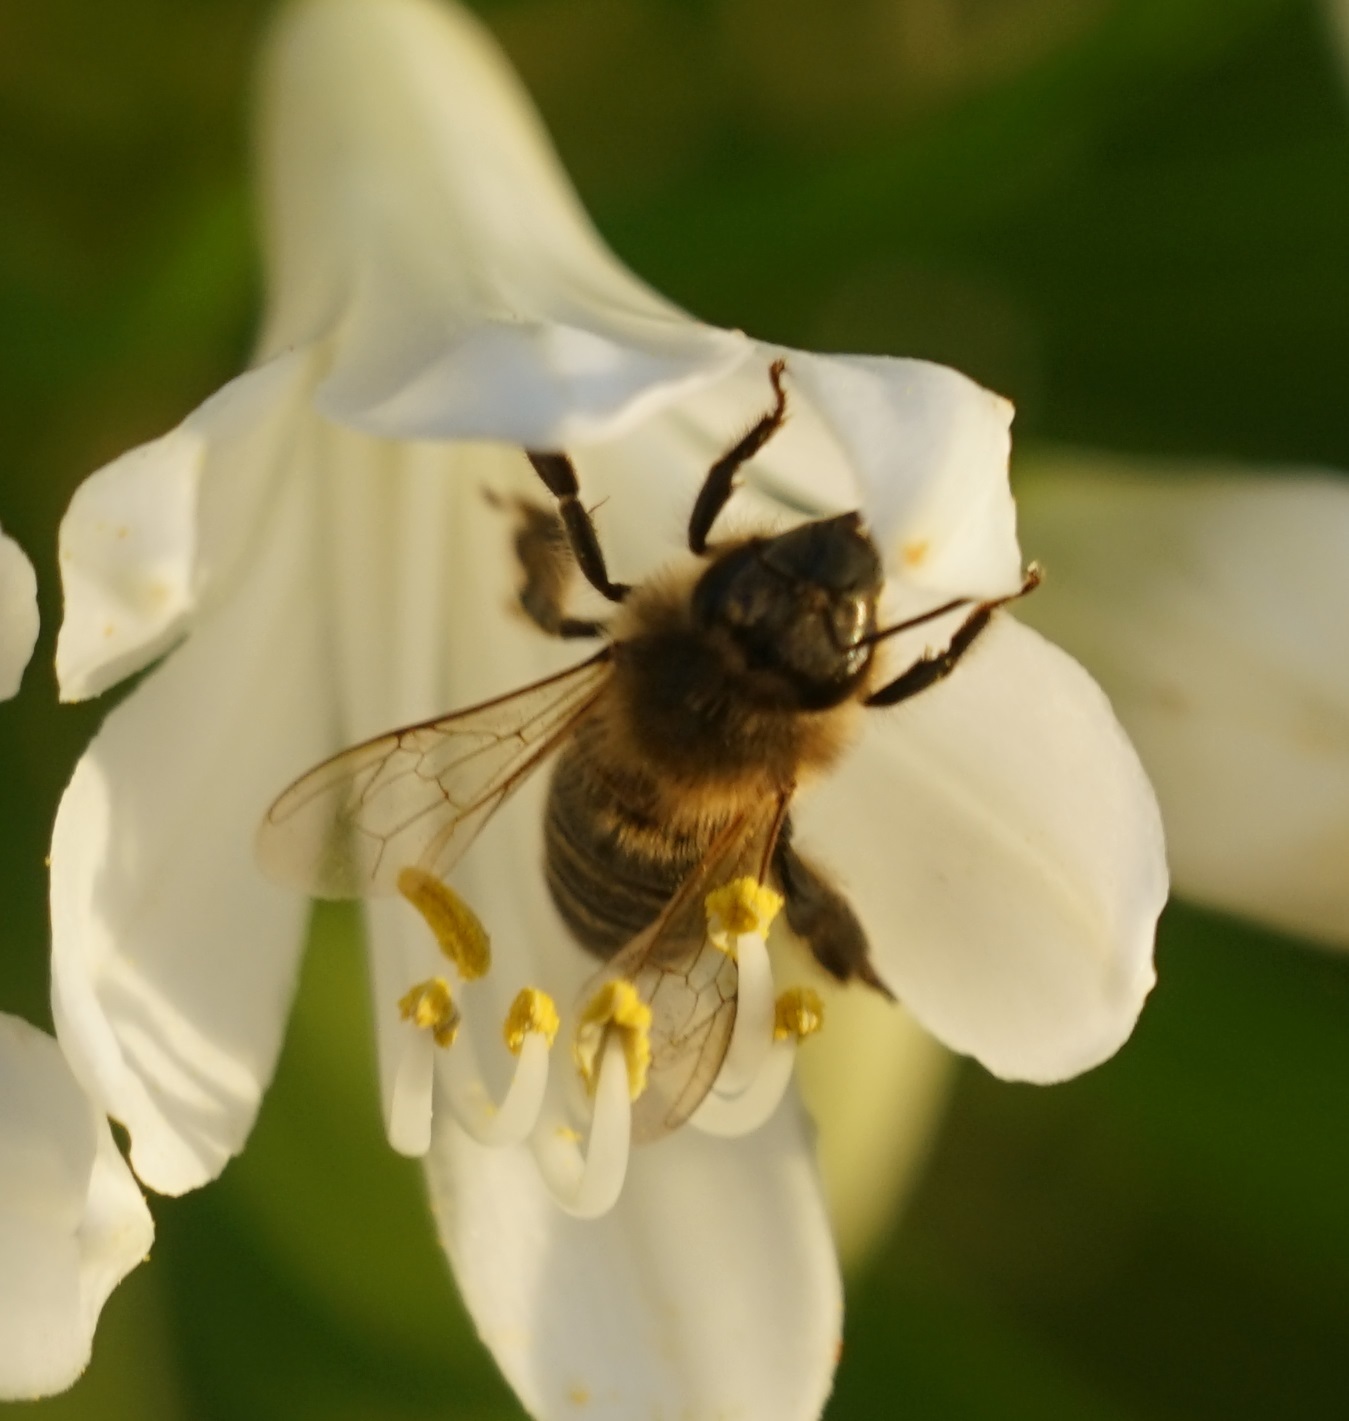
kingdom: Animalia
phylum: Arthropoda
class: Insecta
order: Hymenoptera
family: Apidae
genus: Apis
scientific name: Apis mellifera
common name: Honey bee
